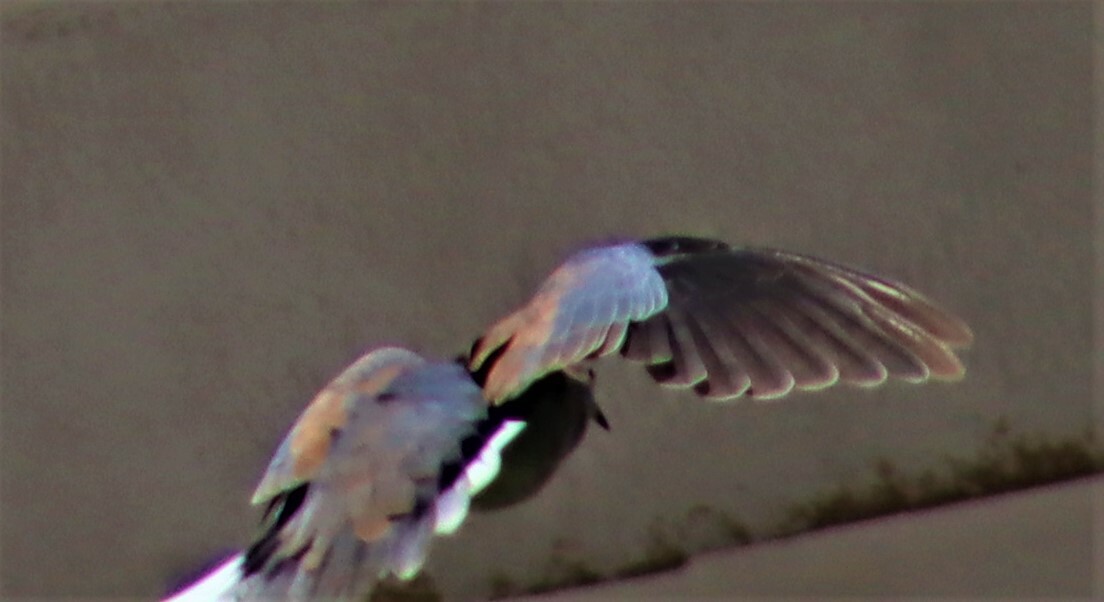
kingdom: Animalia
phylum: Chordata
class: Aves
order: Columbiformes
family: Columbidae
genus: Spilopelia
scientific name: Spilopelia senegalensis
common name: Laughing dove
